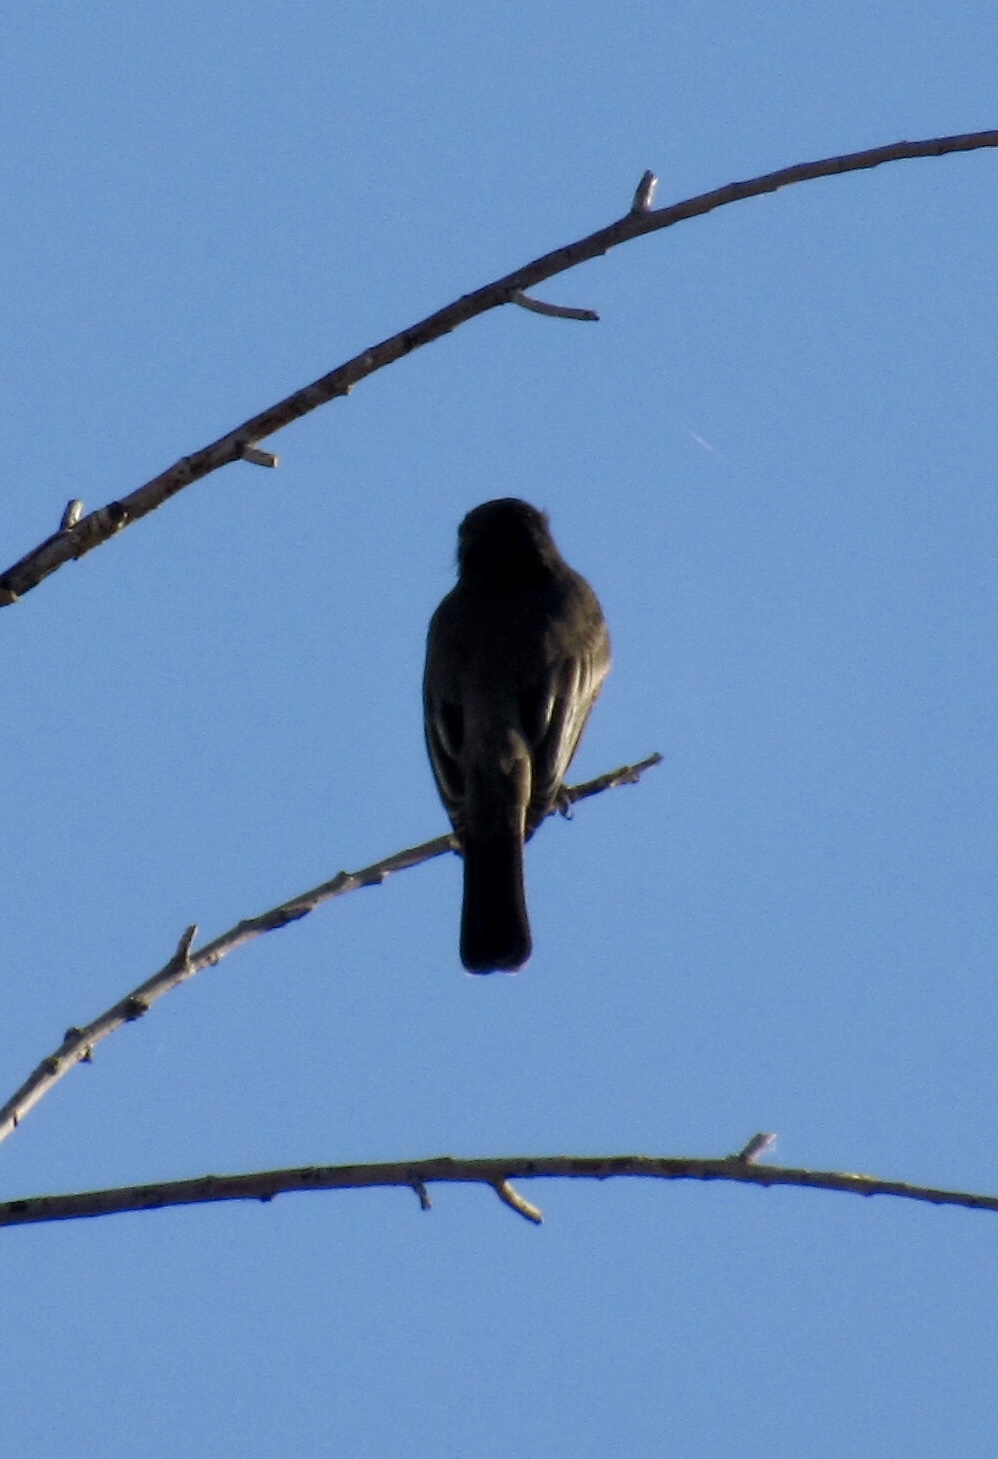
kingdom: Animalia
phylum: Chordata
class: Aves
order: Passeriformes
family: Tyrannidae
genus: Sayornis
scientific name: Sayornis nigricans
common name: Black phoebe
